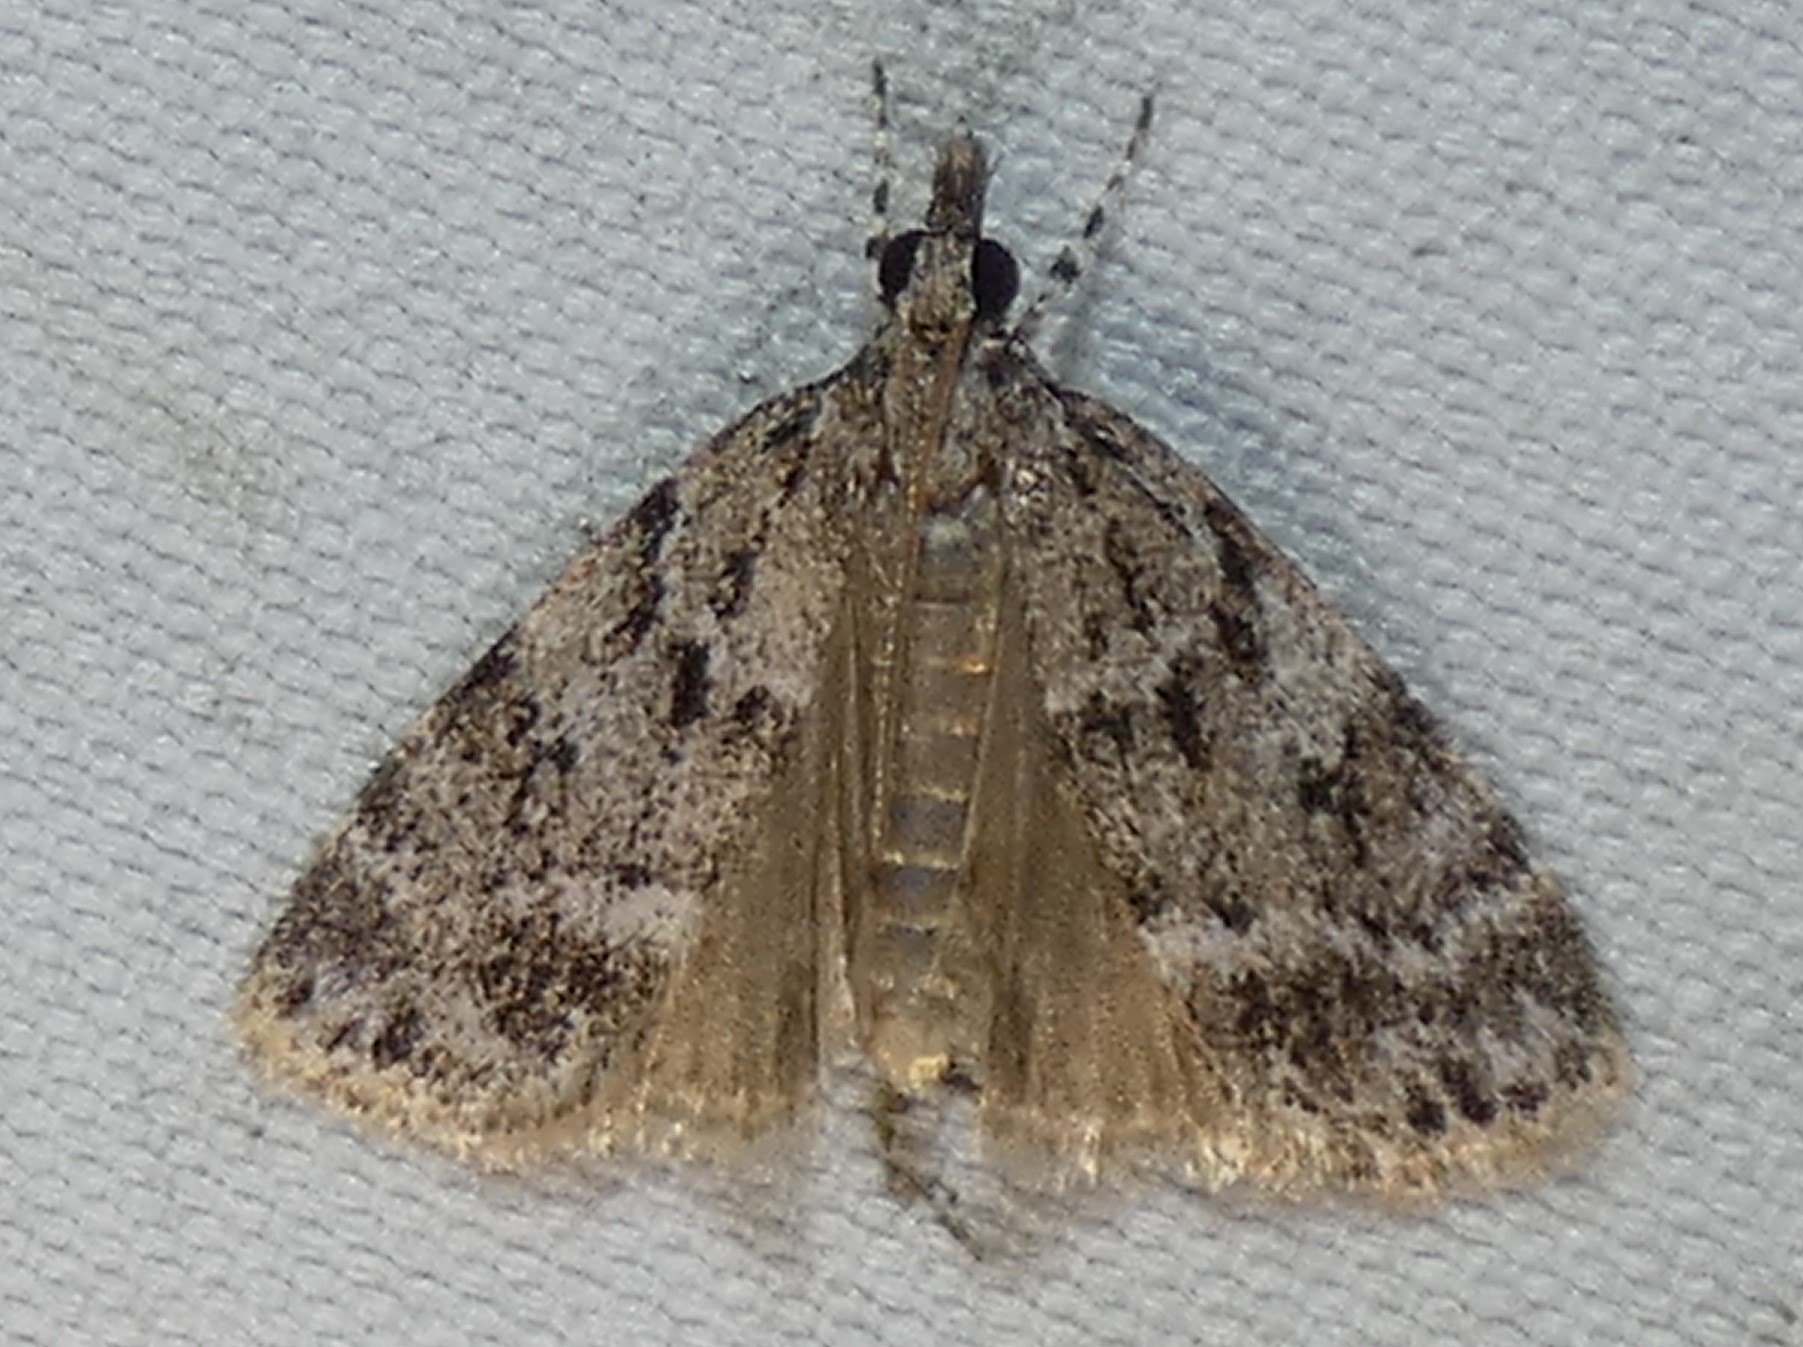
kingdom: Animalia
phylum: Arthropoda
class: Insecta
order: Lepidoptera
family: Crambidae
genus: Scoparia
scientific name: Scoparia basalis
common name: Many-spotted scoparia moth
